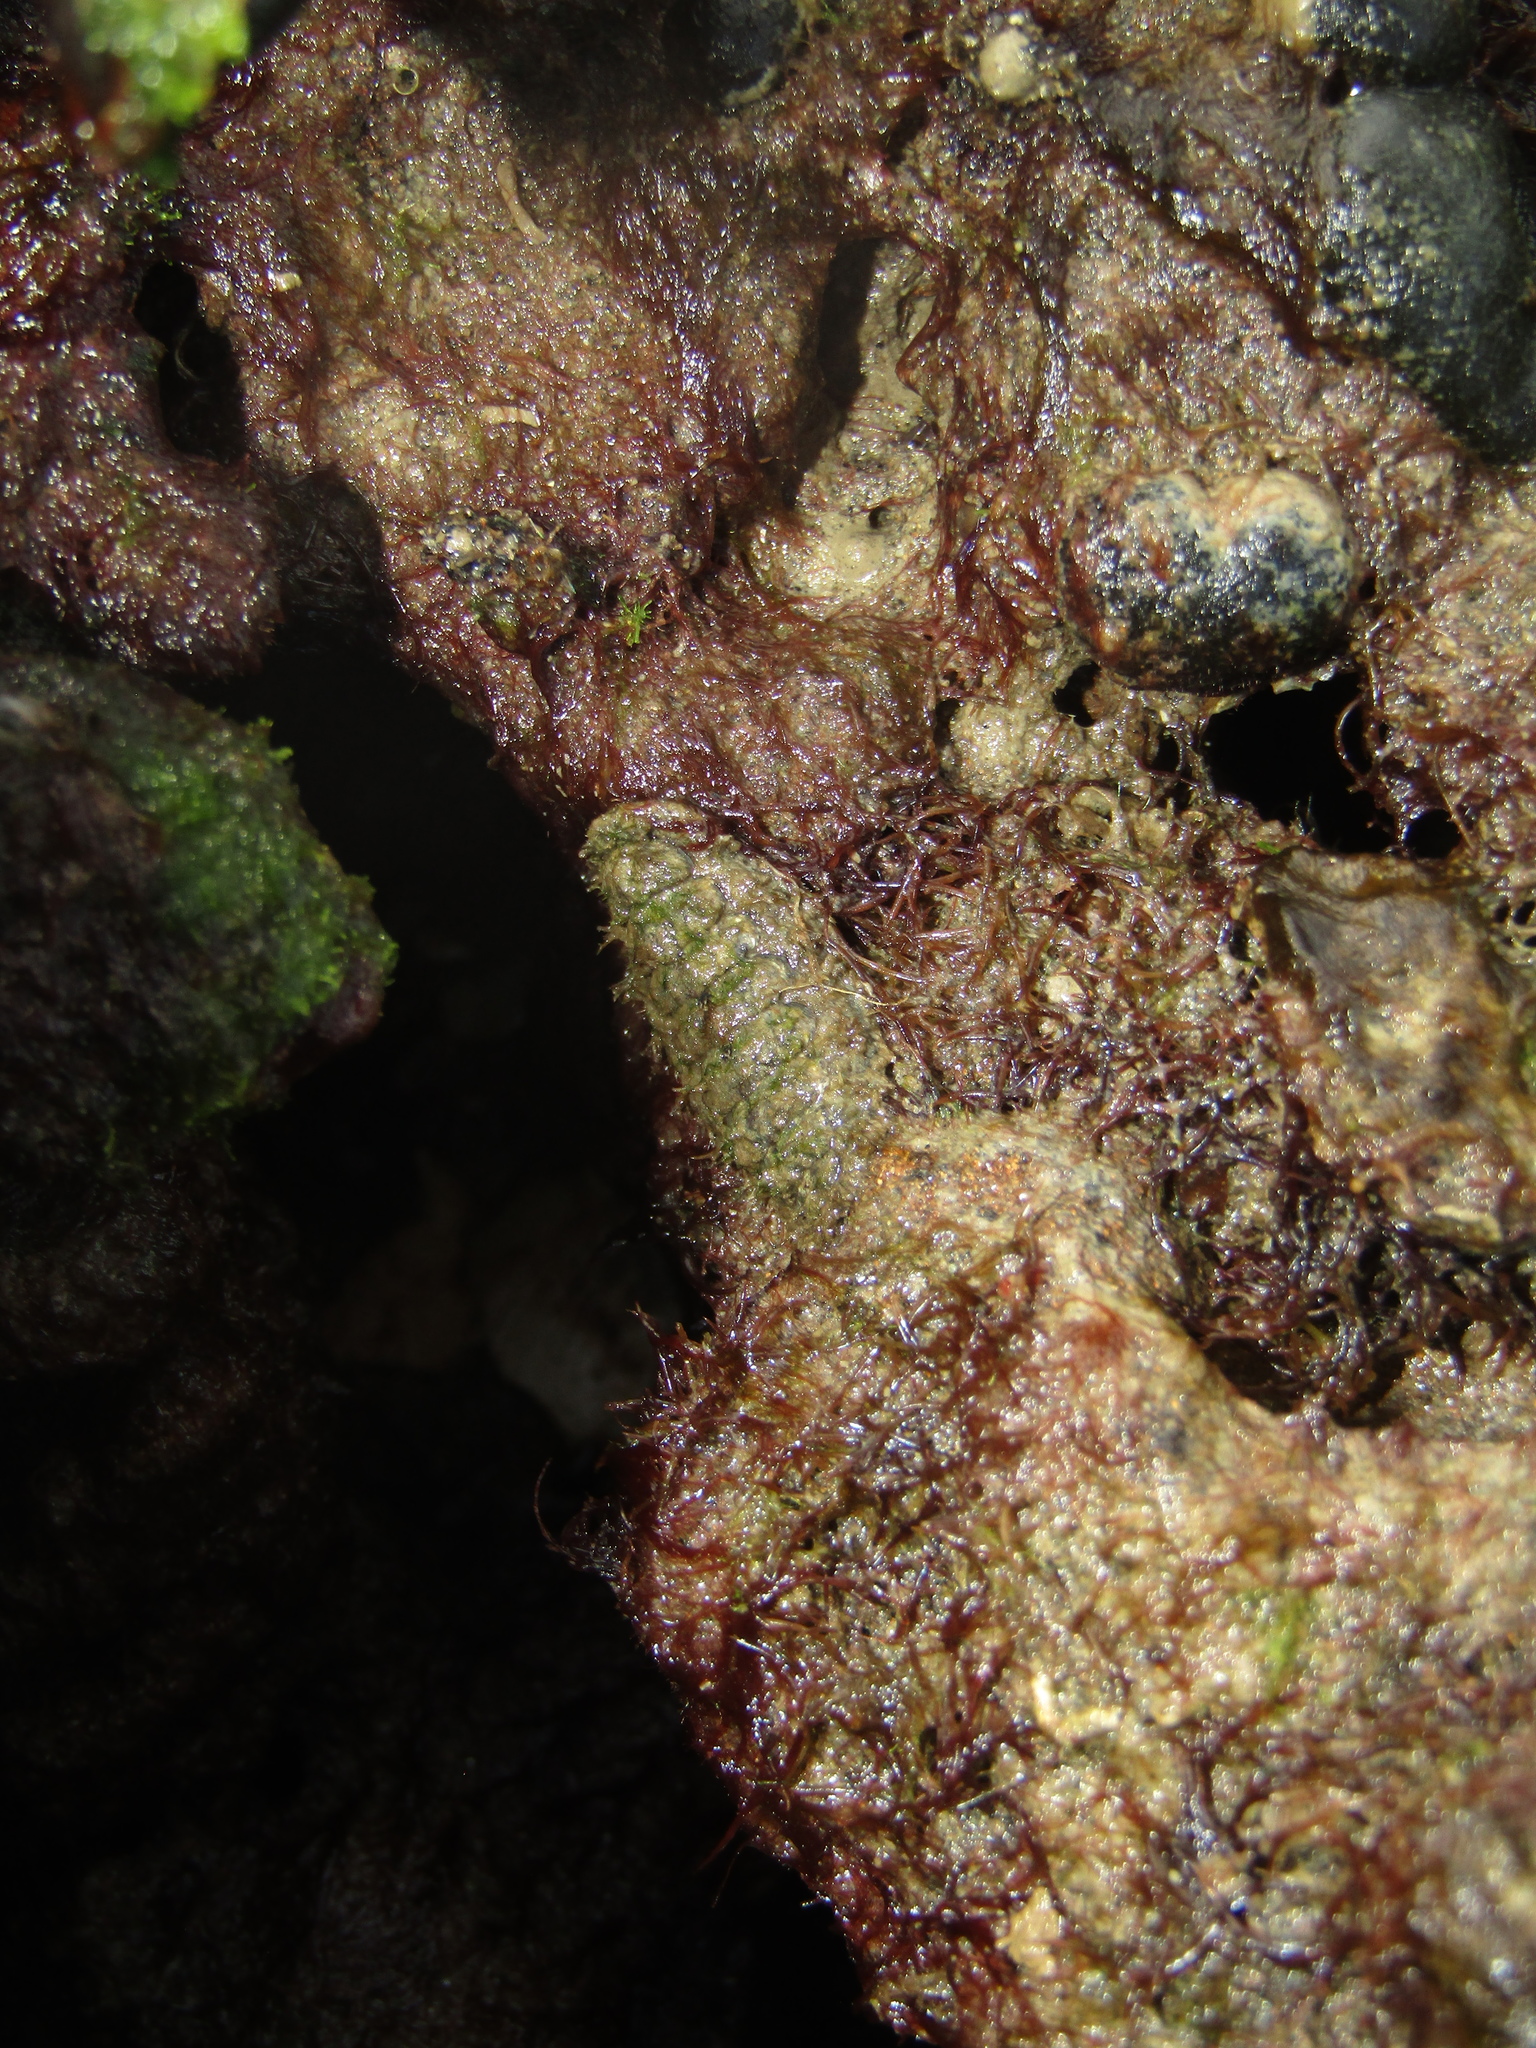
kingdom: Animalia
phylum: Mollusca
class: Polyplacophora
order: Chitonida
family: Mopaliidae
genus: Plaxiphora
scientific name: Plaxiphora caelata
